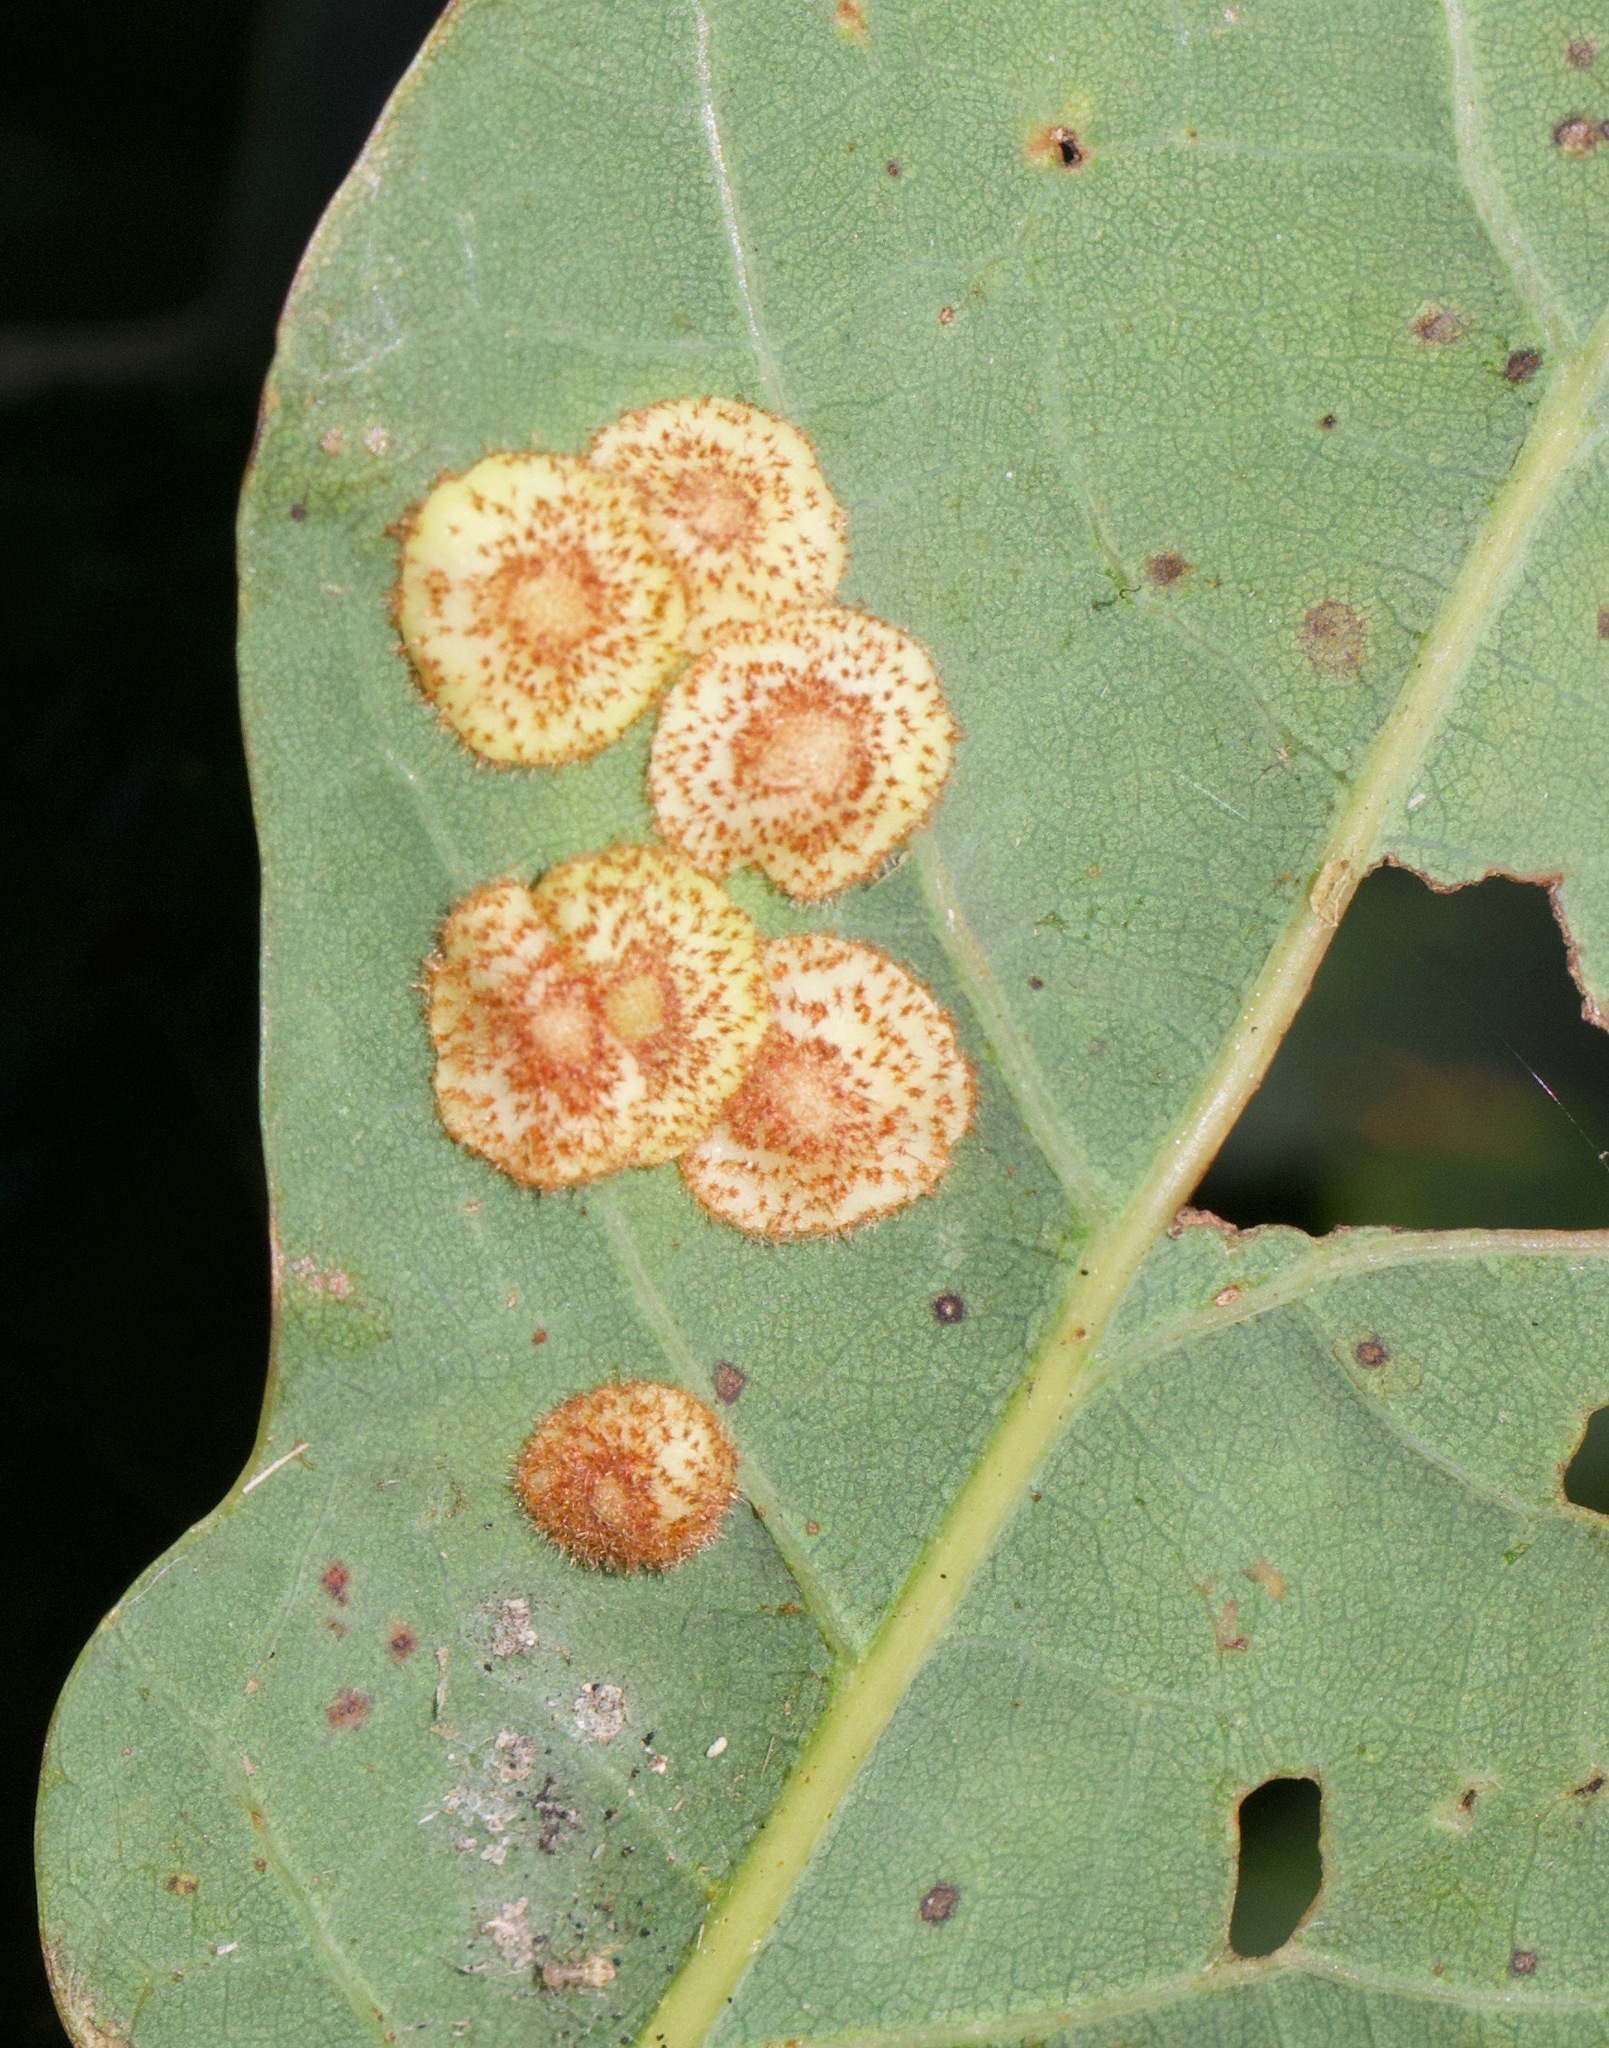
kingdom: Animalia
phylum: Arthropoda
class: Insecta
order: Hymenoptera
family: Cynipidae
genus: Neuroterus
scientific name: Neuroterus quercusbaccarum
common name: Common spangle gall
